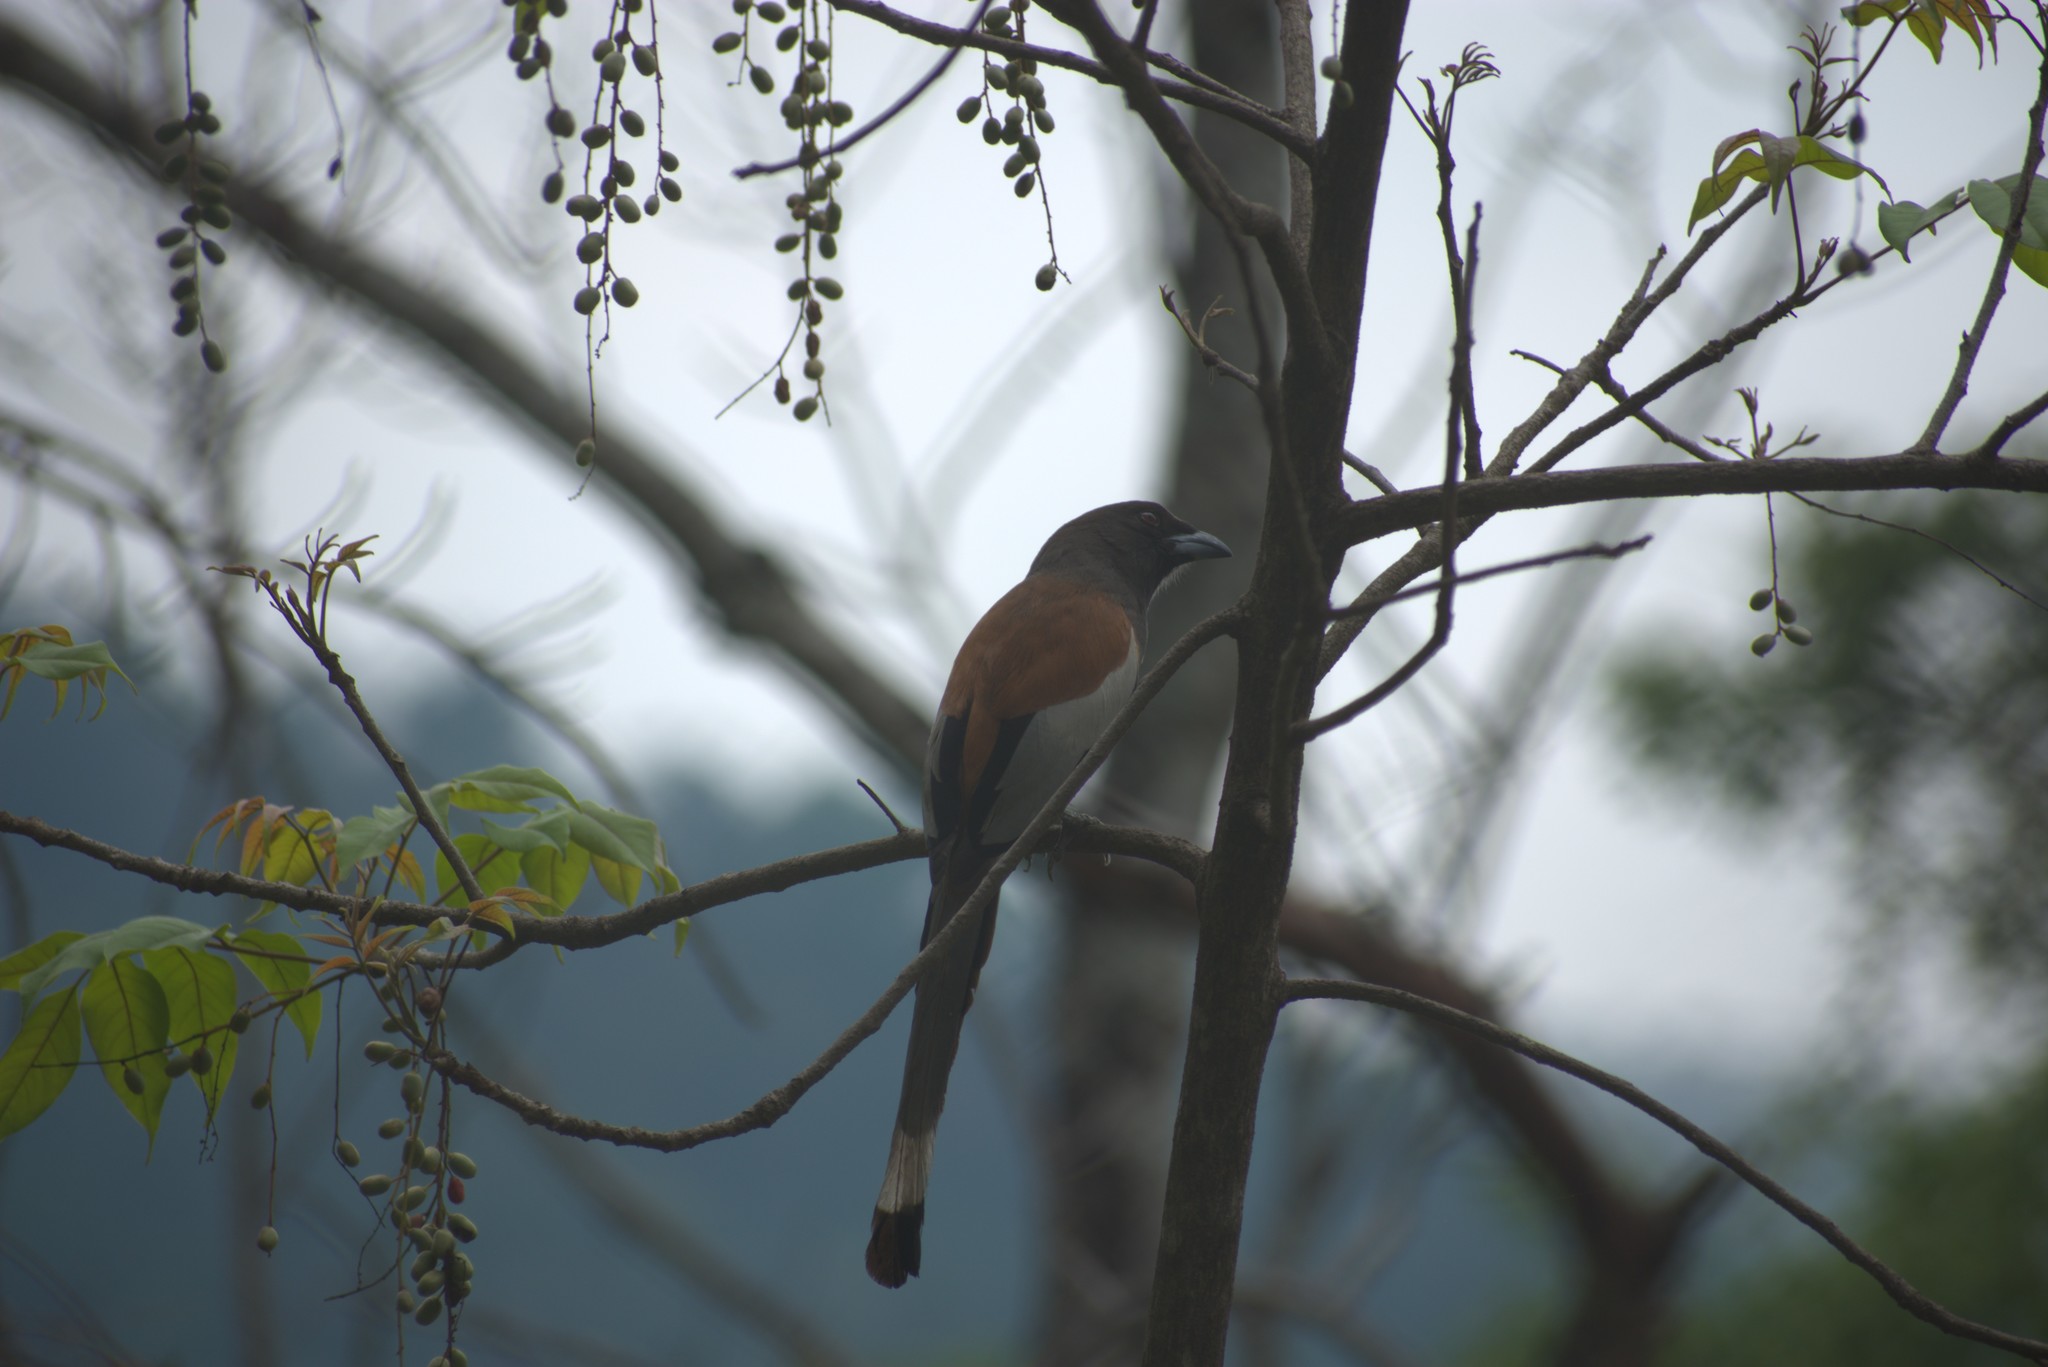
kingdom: Animalia
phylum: Chordata
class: Aves
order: Passeriformes
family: Corvidae
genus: Dendrocitta
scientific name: Dendrocitta vagabunda
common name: Rufous treepie
